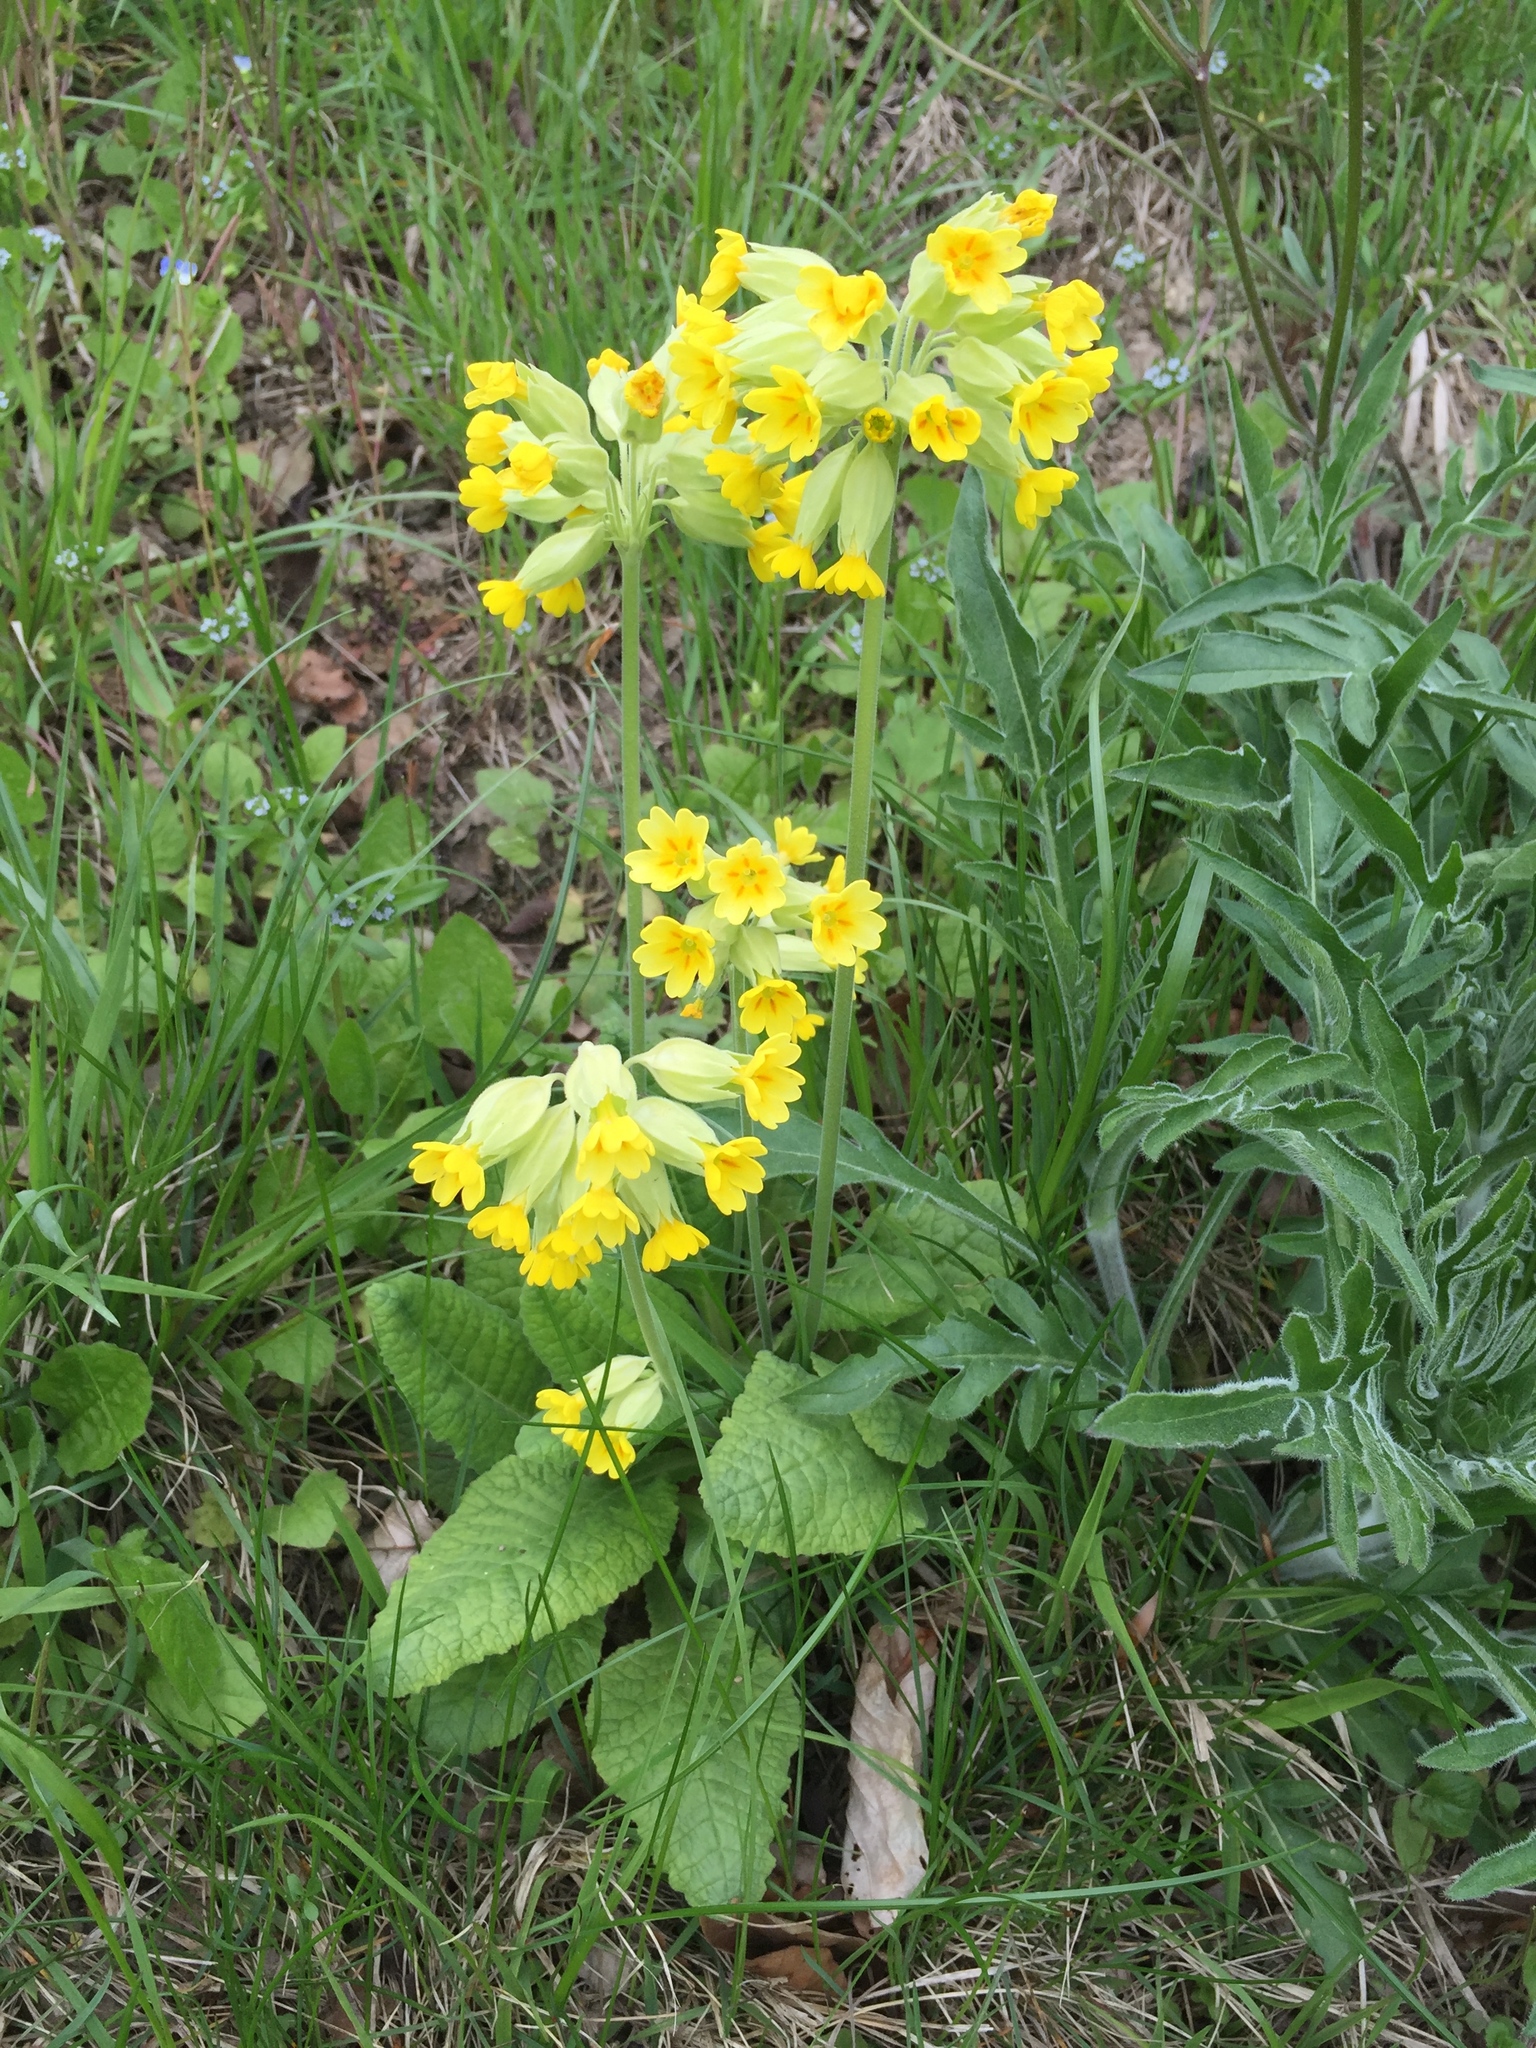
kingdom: Plantae
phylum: Tracheophyta
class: Magnoliopsida
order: Ericales
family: Primulaceae
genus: Primula
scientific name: Primula veris
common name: Cowslip
